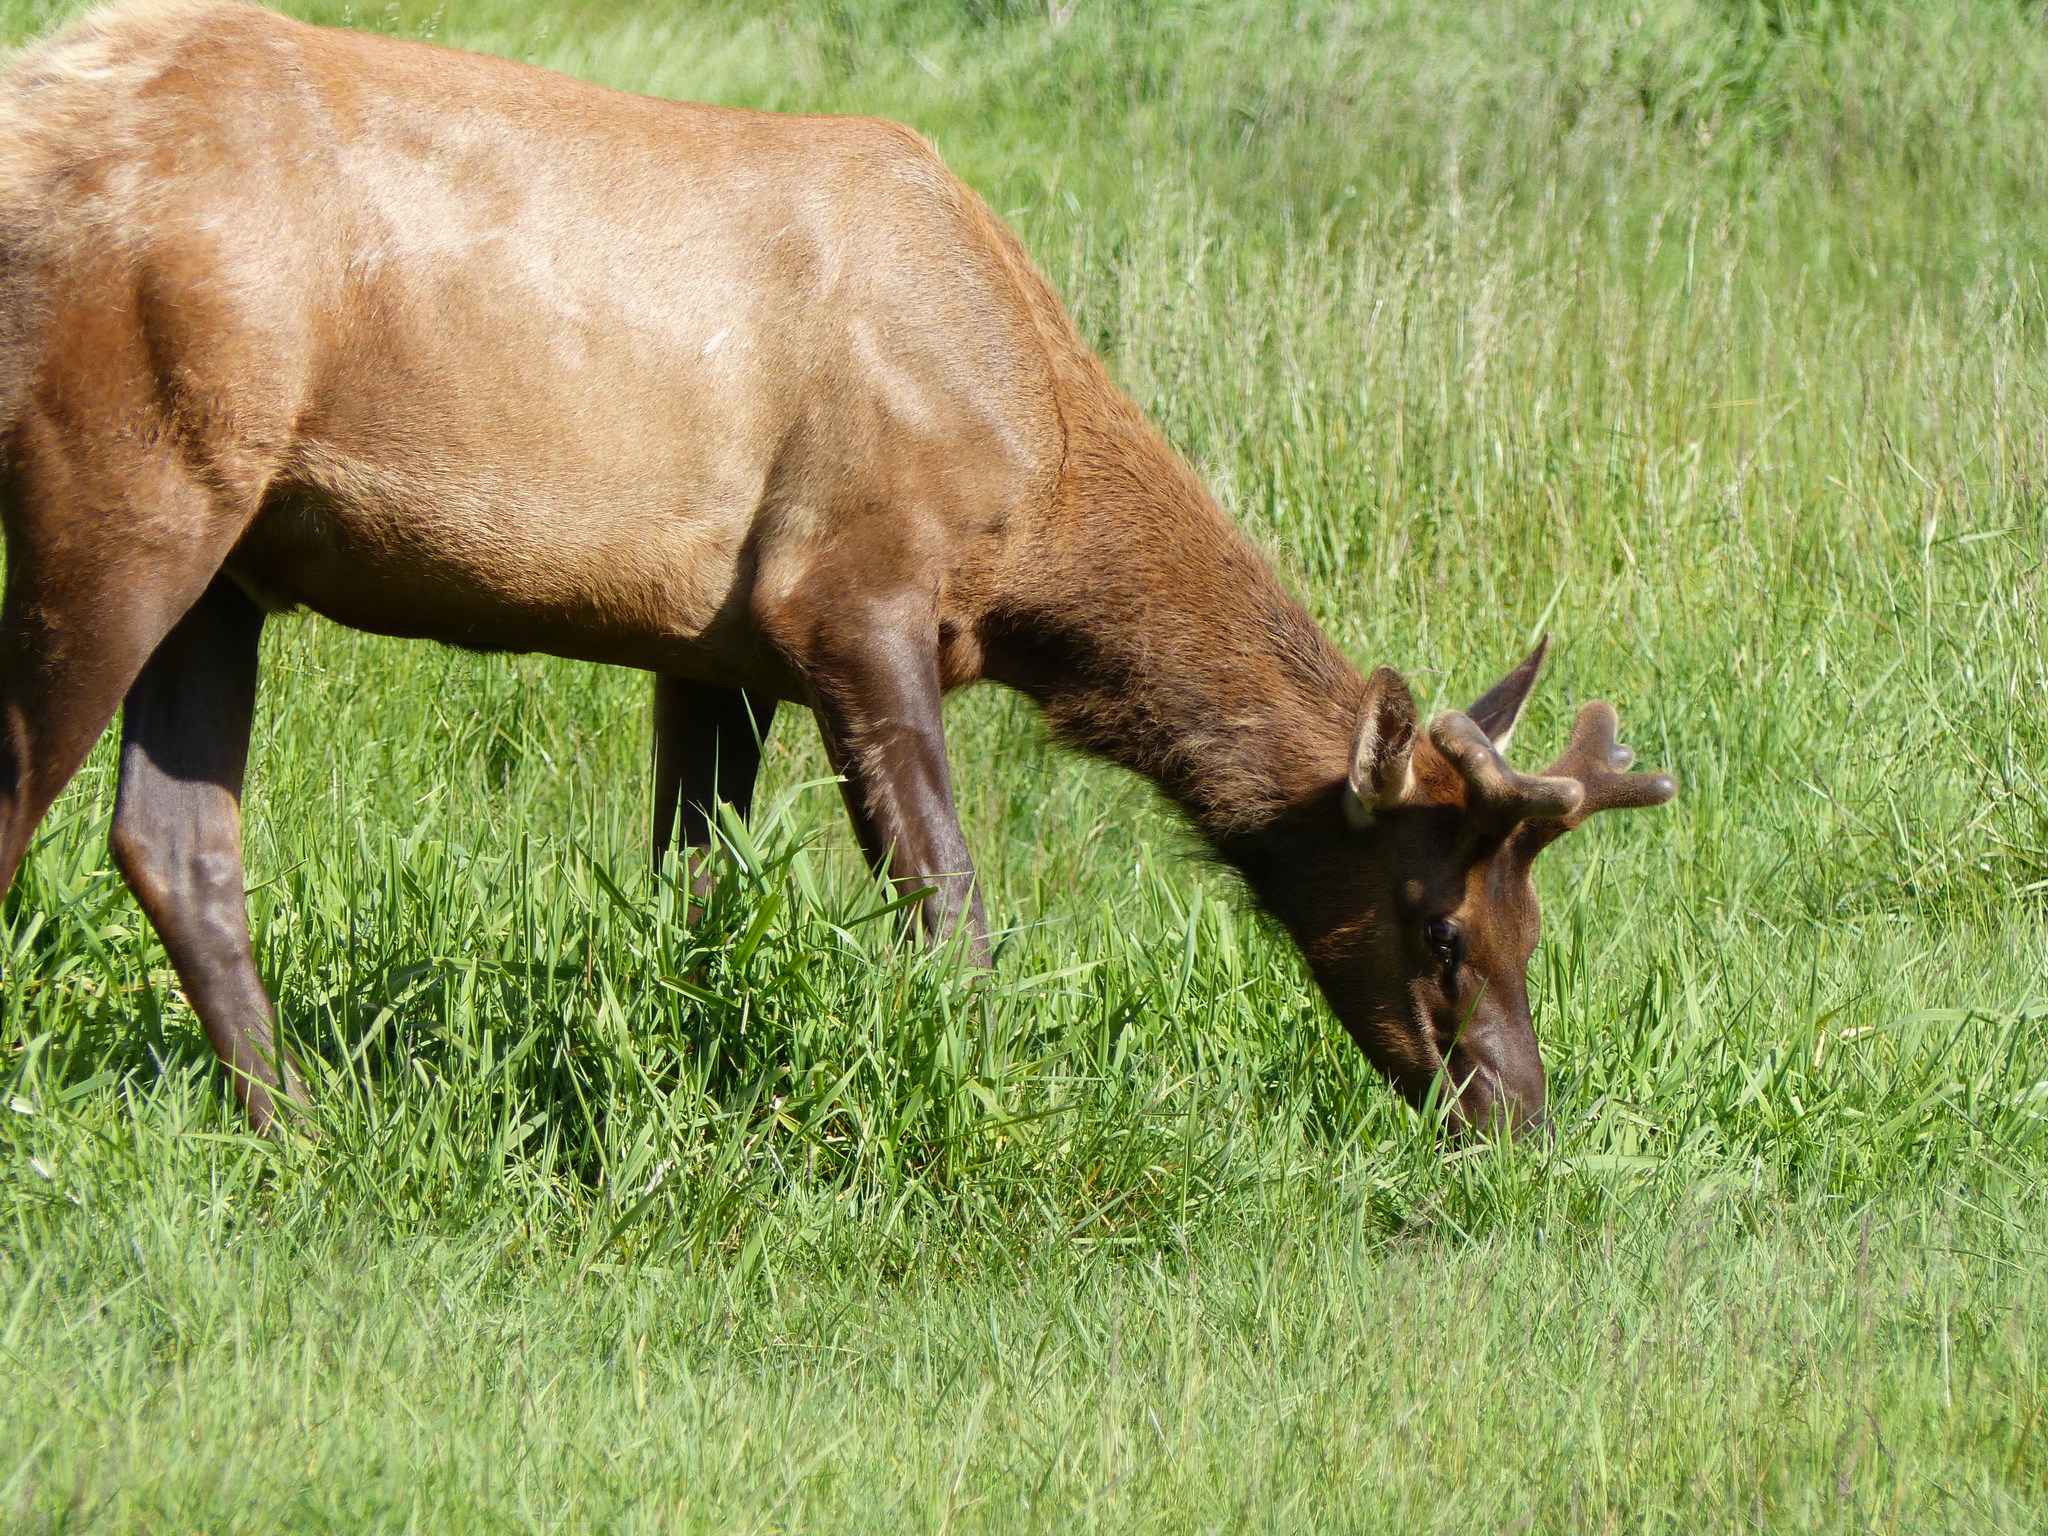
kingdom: Animalia
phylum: Chordata
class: Mammalia
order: Artiodactyla
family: Cervidae
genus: Cervus
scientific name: Cervus elaphus
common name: Red deer
